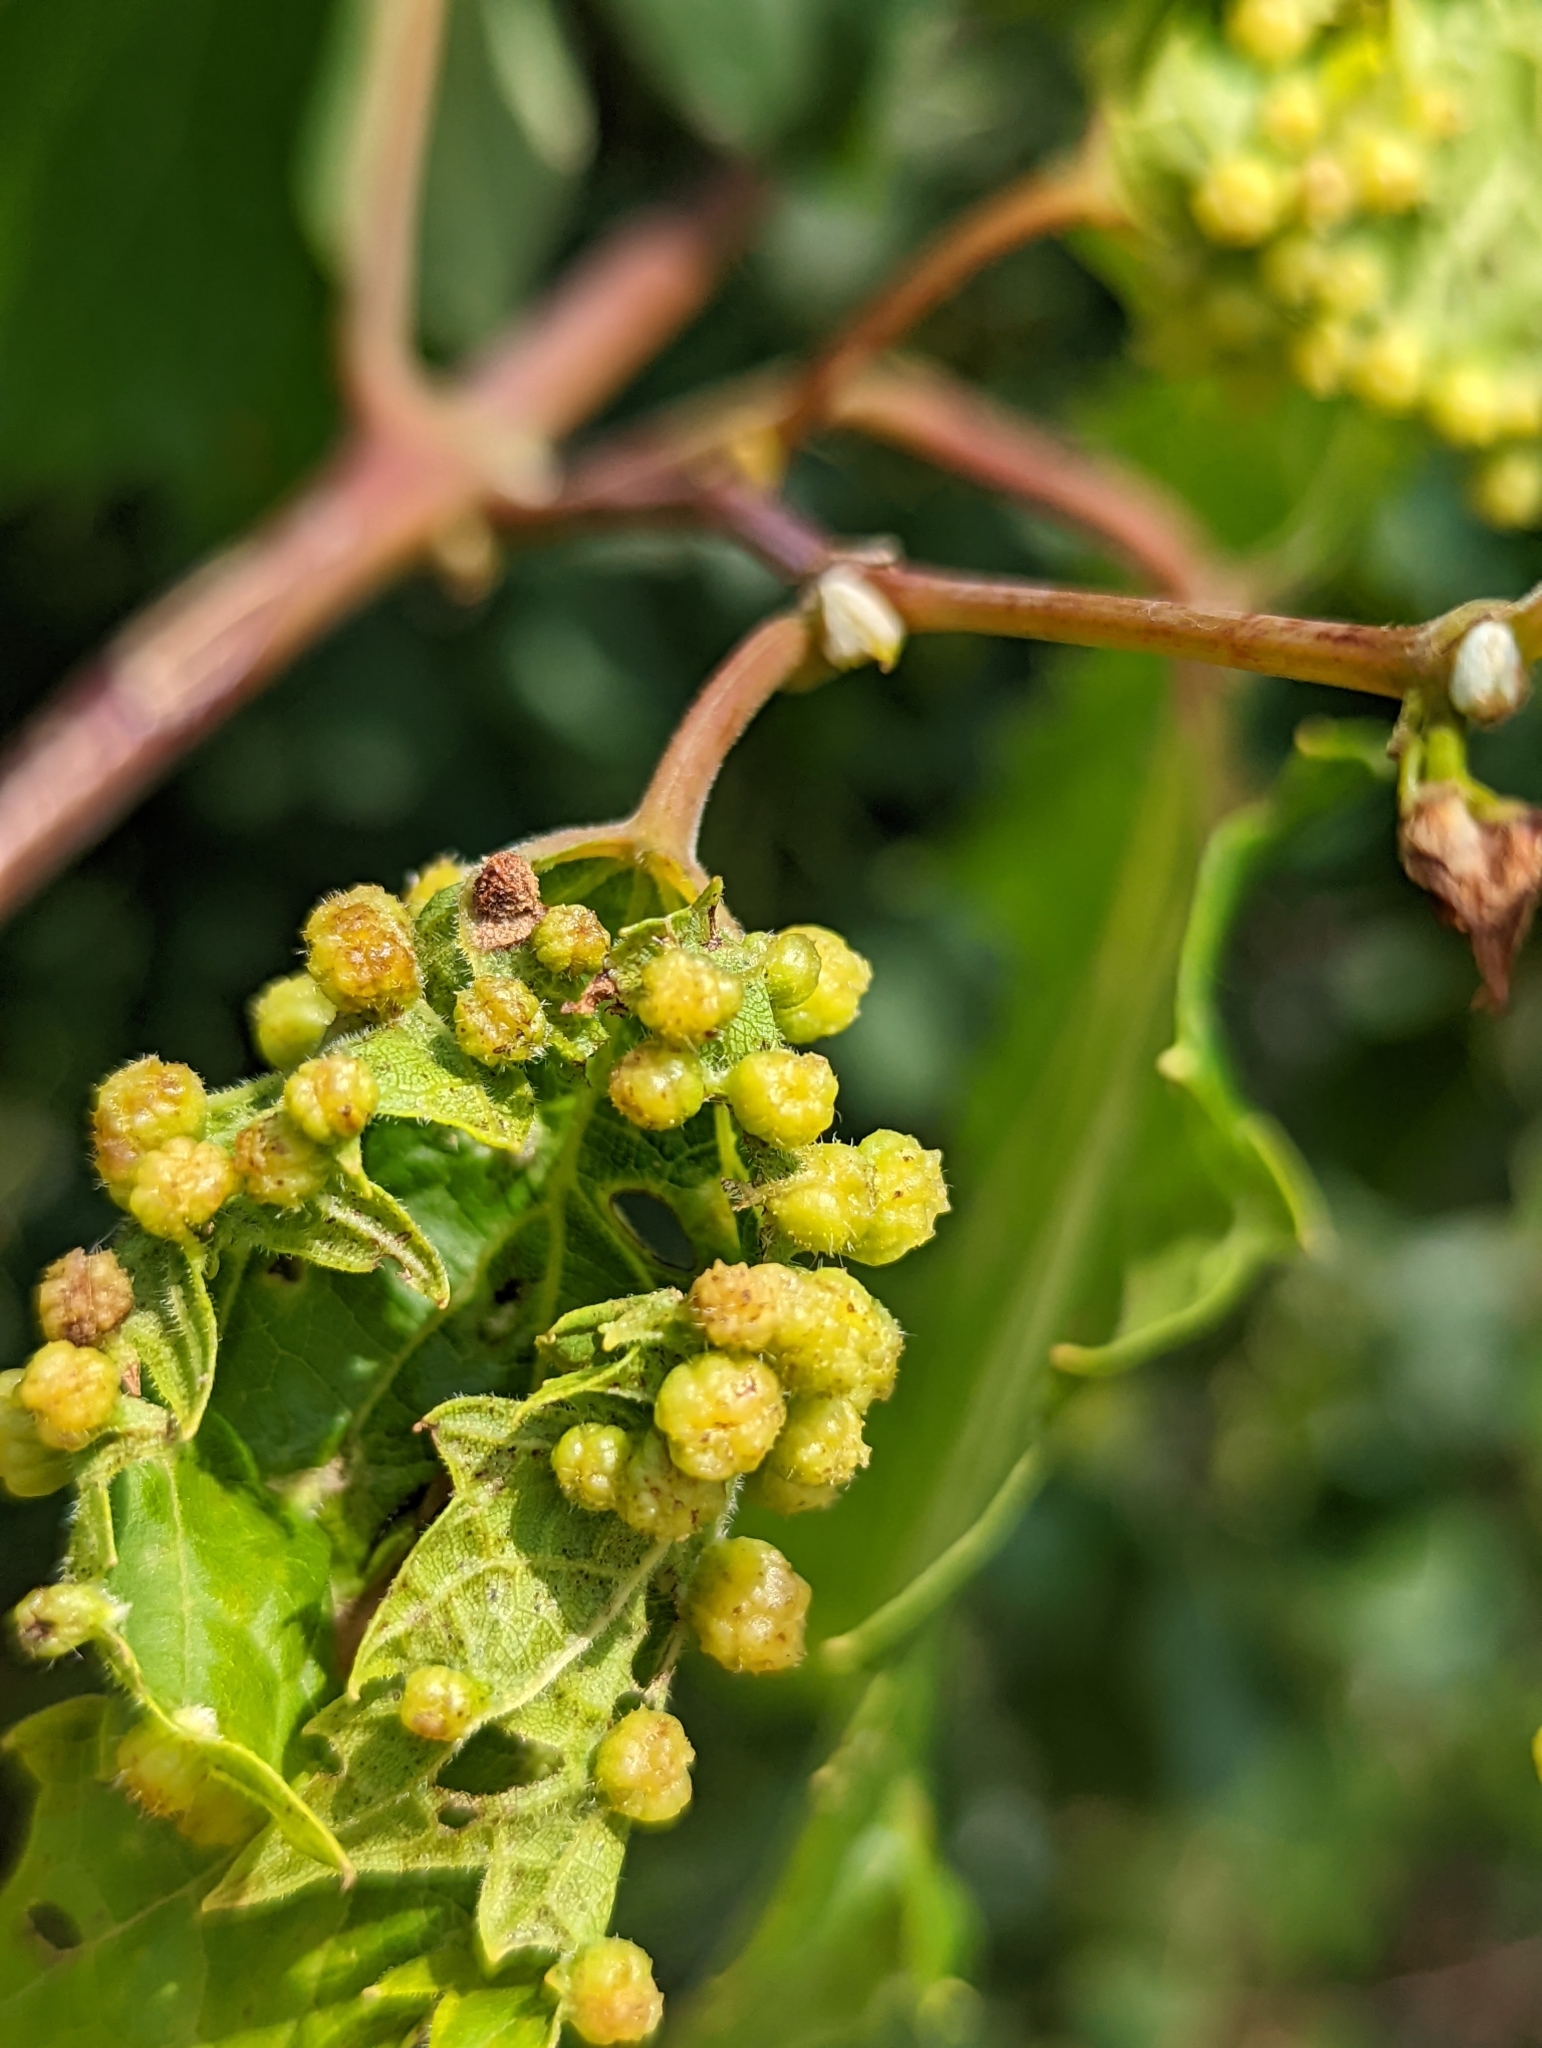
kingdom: Animalia
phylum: Arthropoda
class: Insecta
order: Hemiptera
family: Phylloxeridae
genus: Daktulosphaira
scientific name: Daktulosphaira vitifoliae
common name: Grape phylloxera
